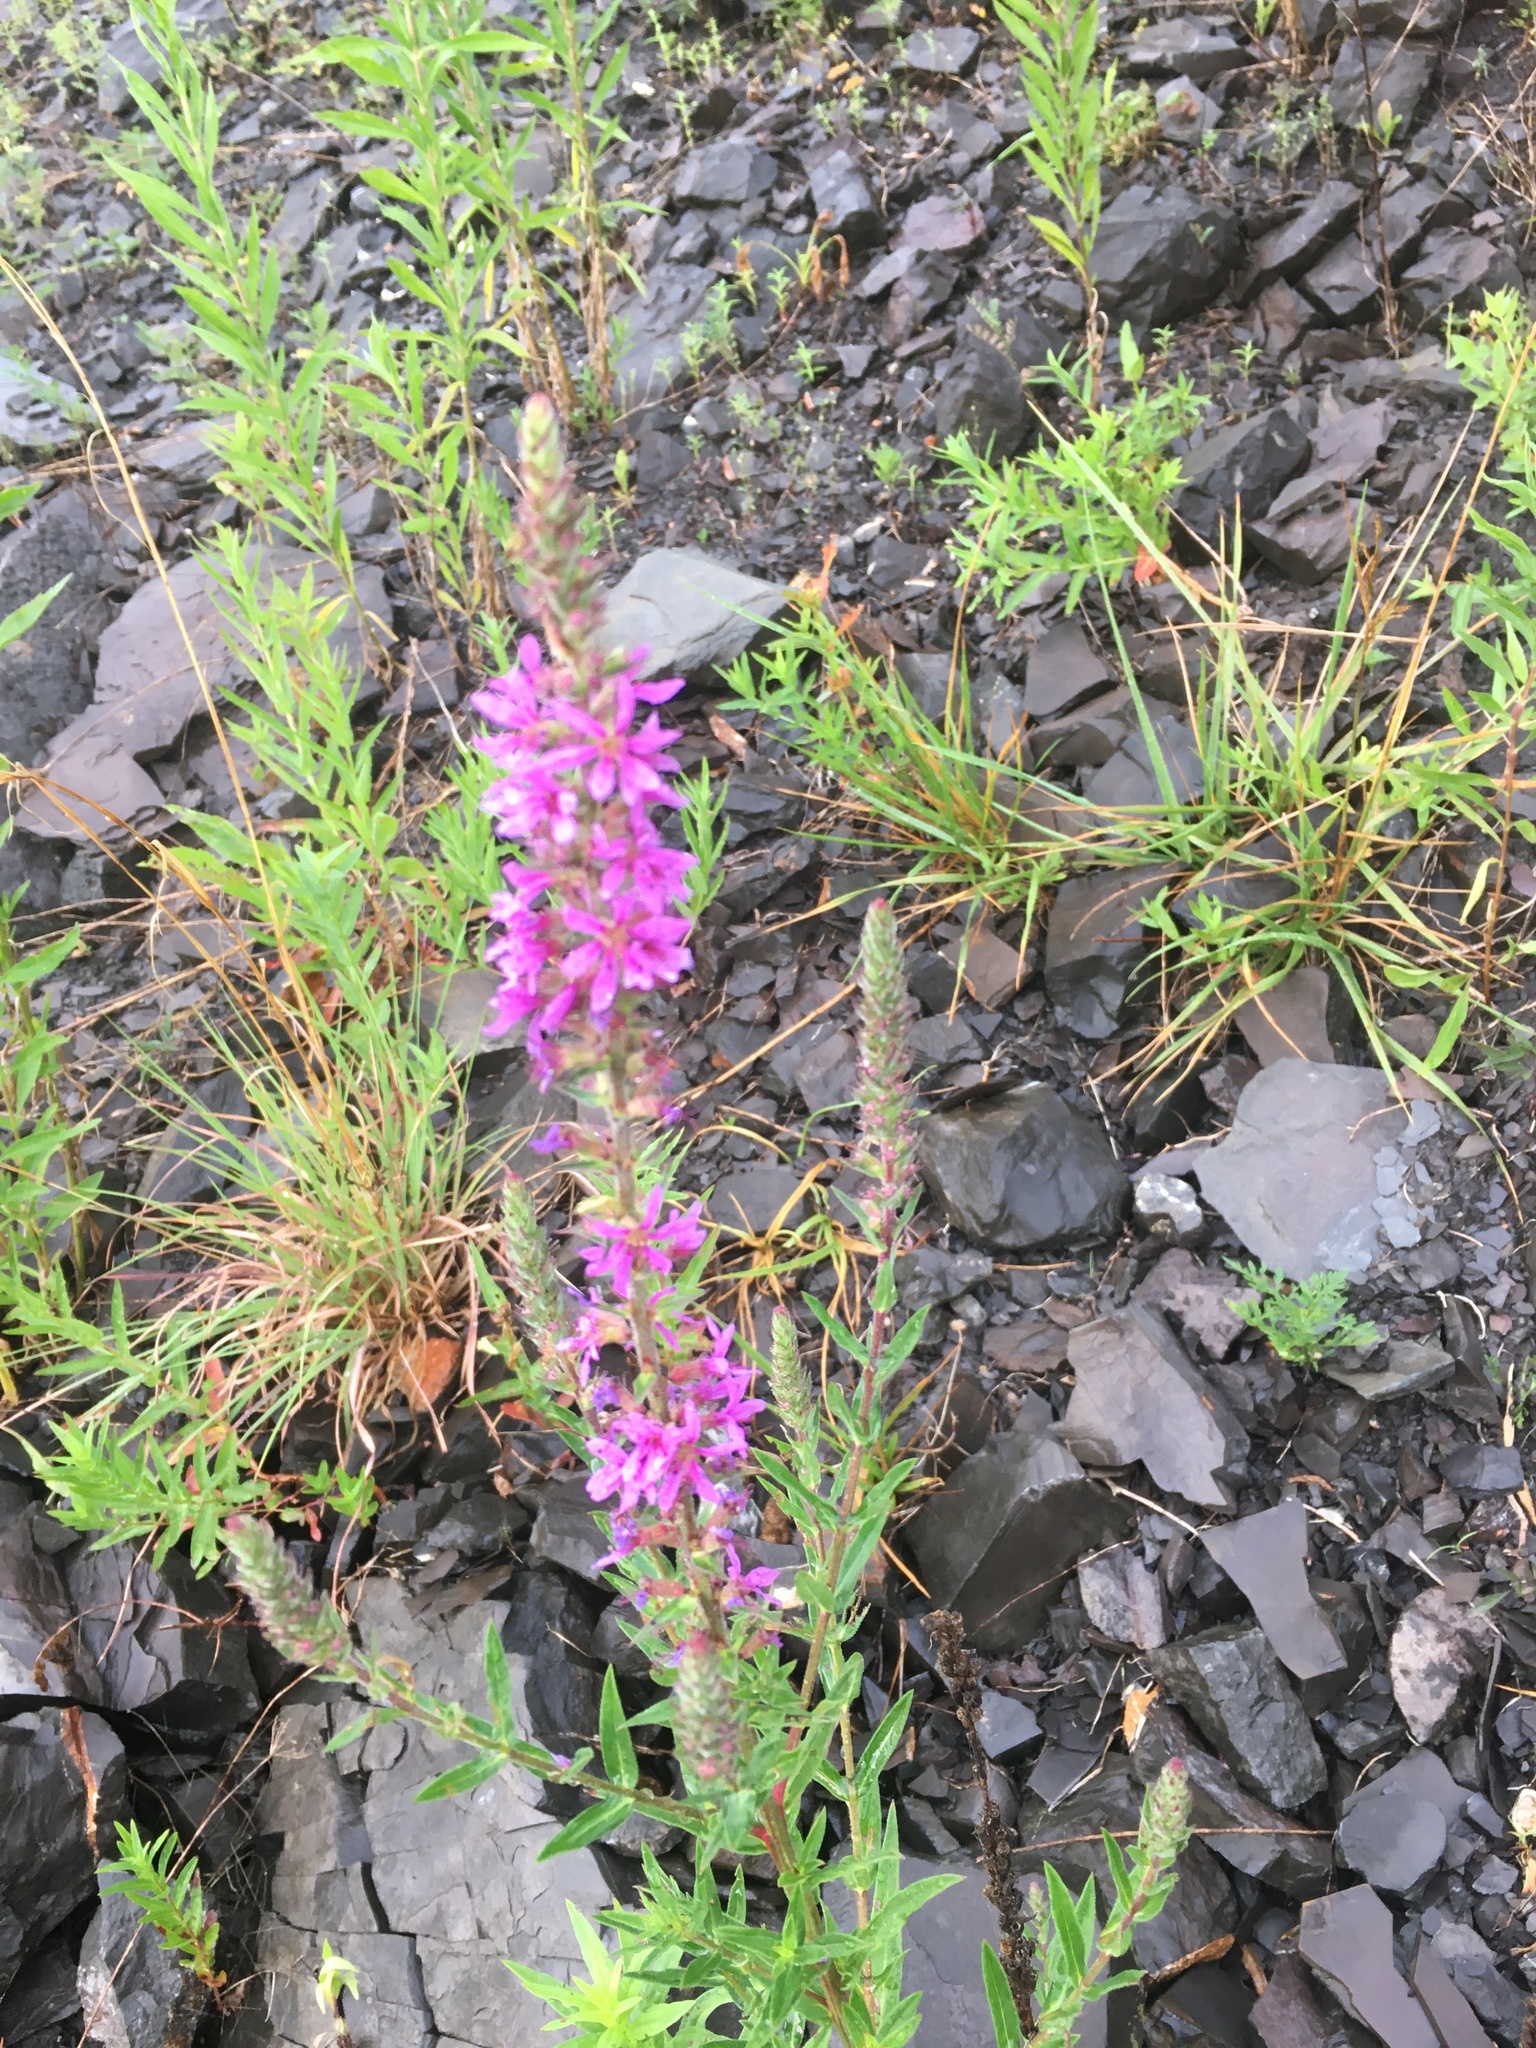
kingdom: Plantae
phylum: Tracheophyta
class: Magnoliopsida
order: Myrtales
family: Lythraceae
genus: Lythrum
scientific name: Lythrum salicaria
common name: Purple loosestrife
